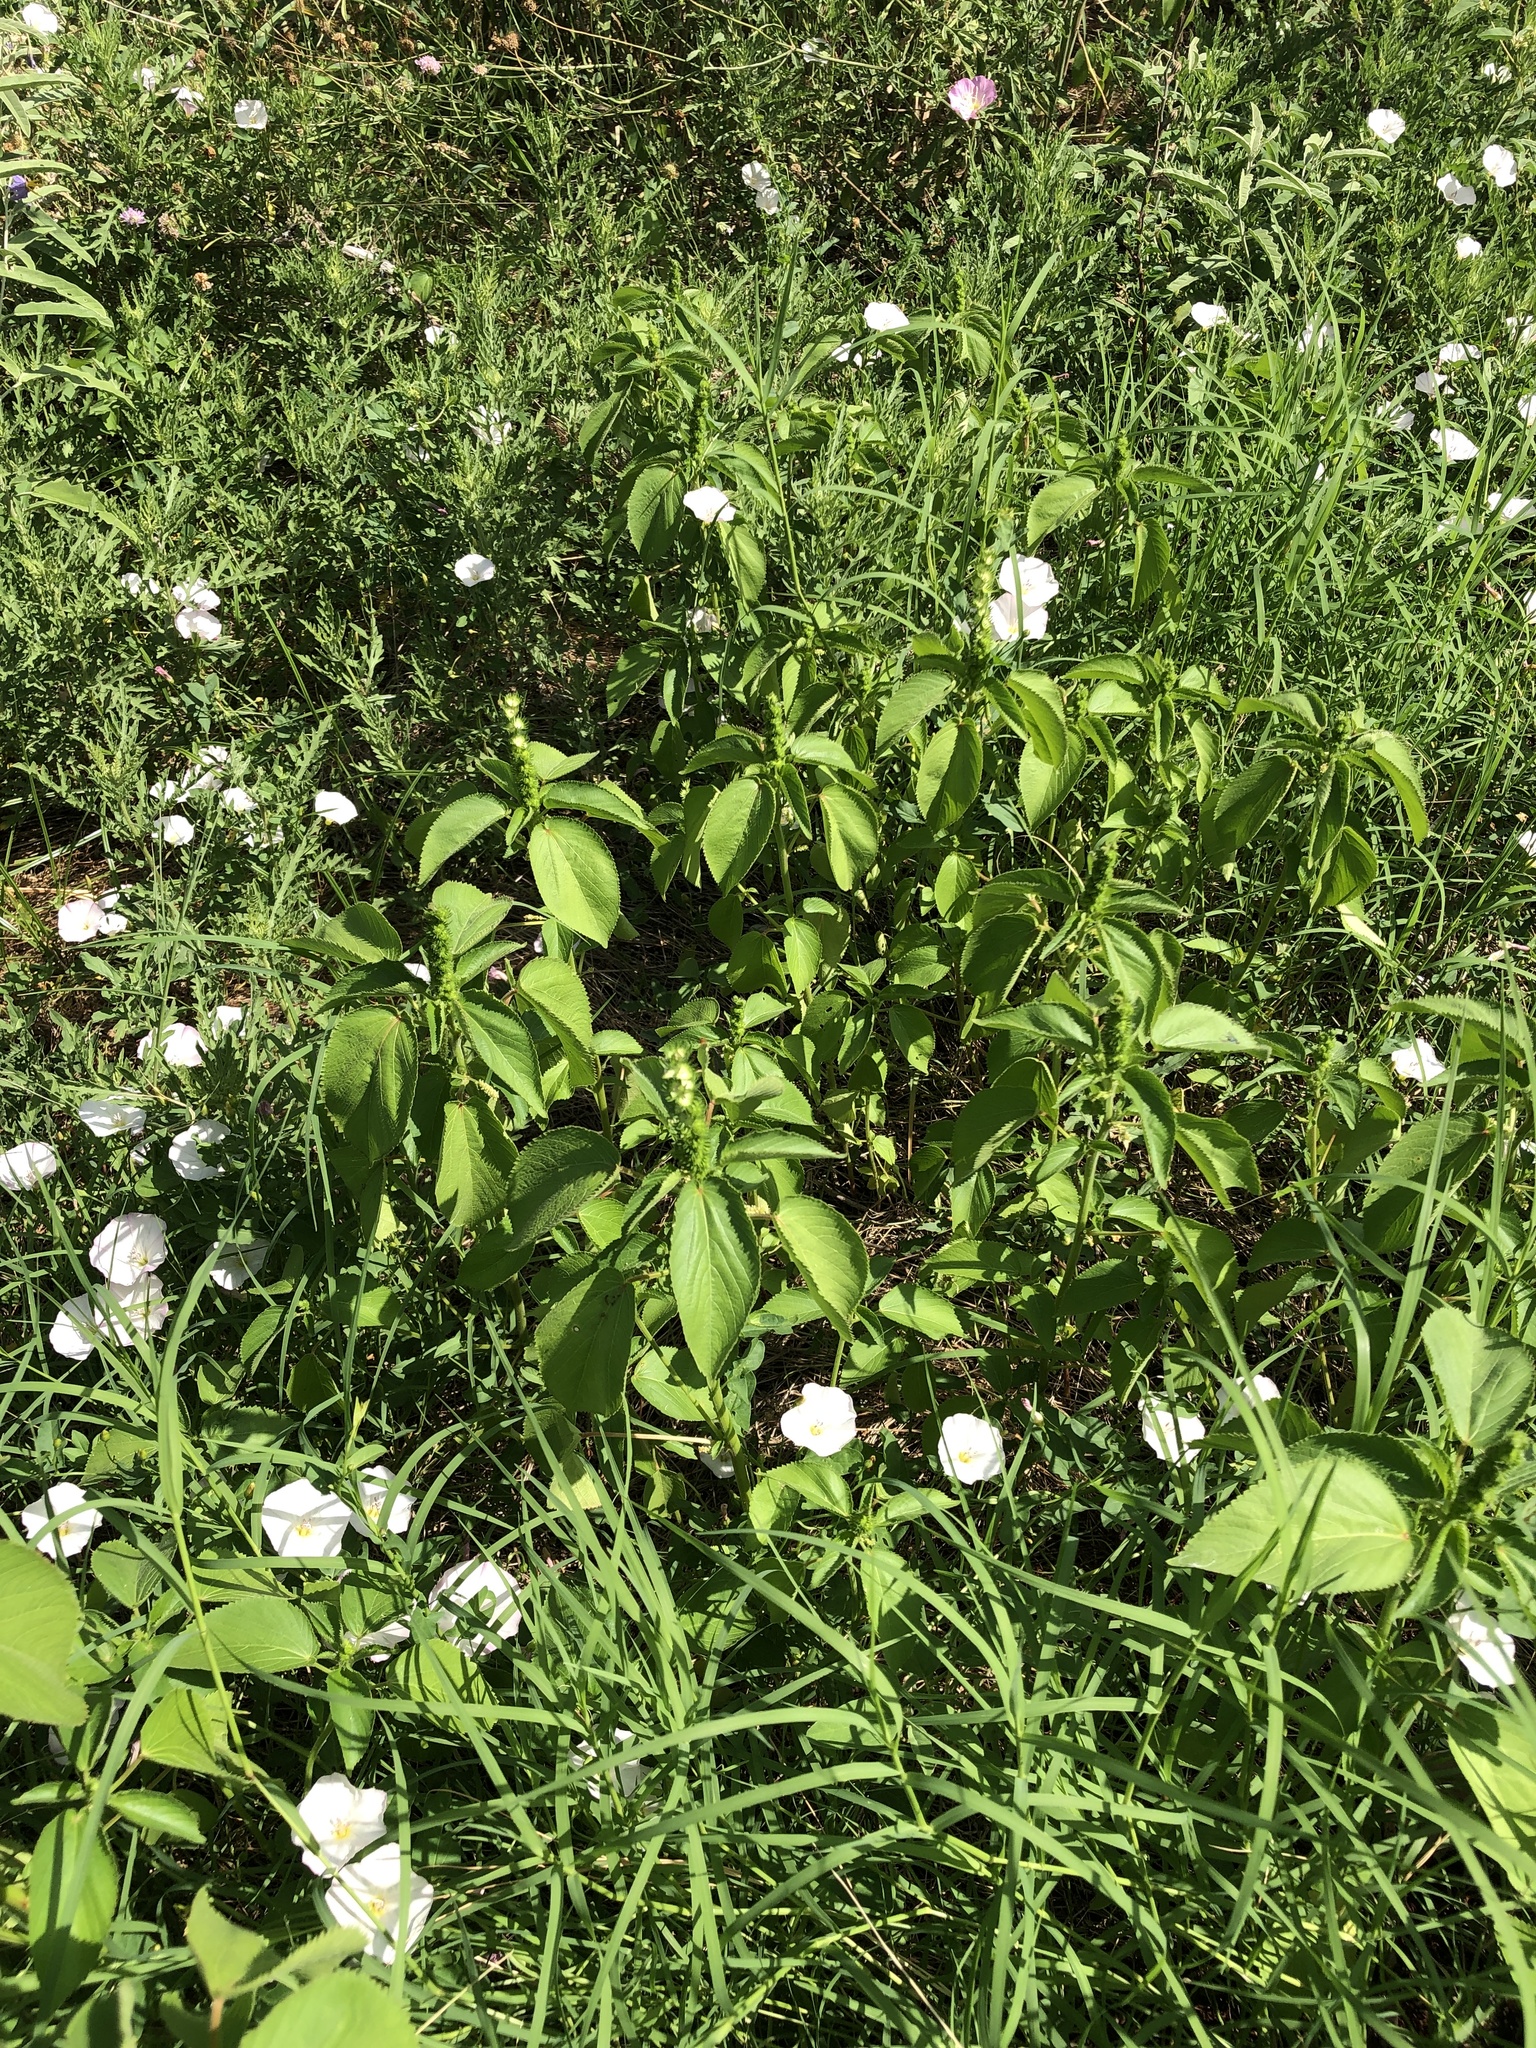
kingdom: Plantae
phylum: Tracheophyta
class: Magnoliopsida
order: Malpighiales
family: Euphorbiaceae
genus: Acalypha
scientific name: Acalypha ostryifolia
